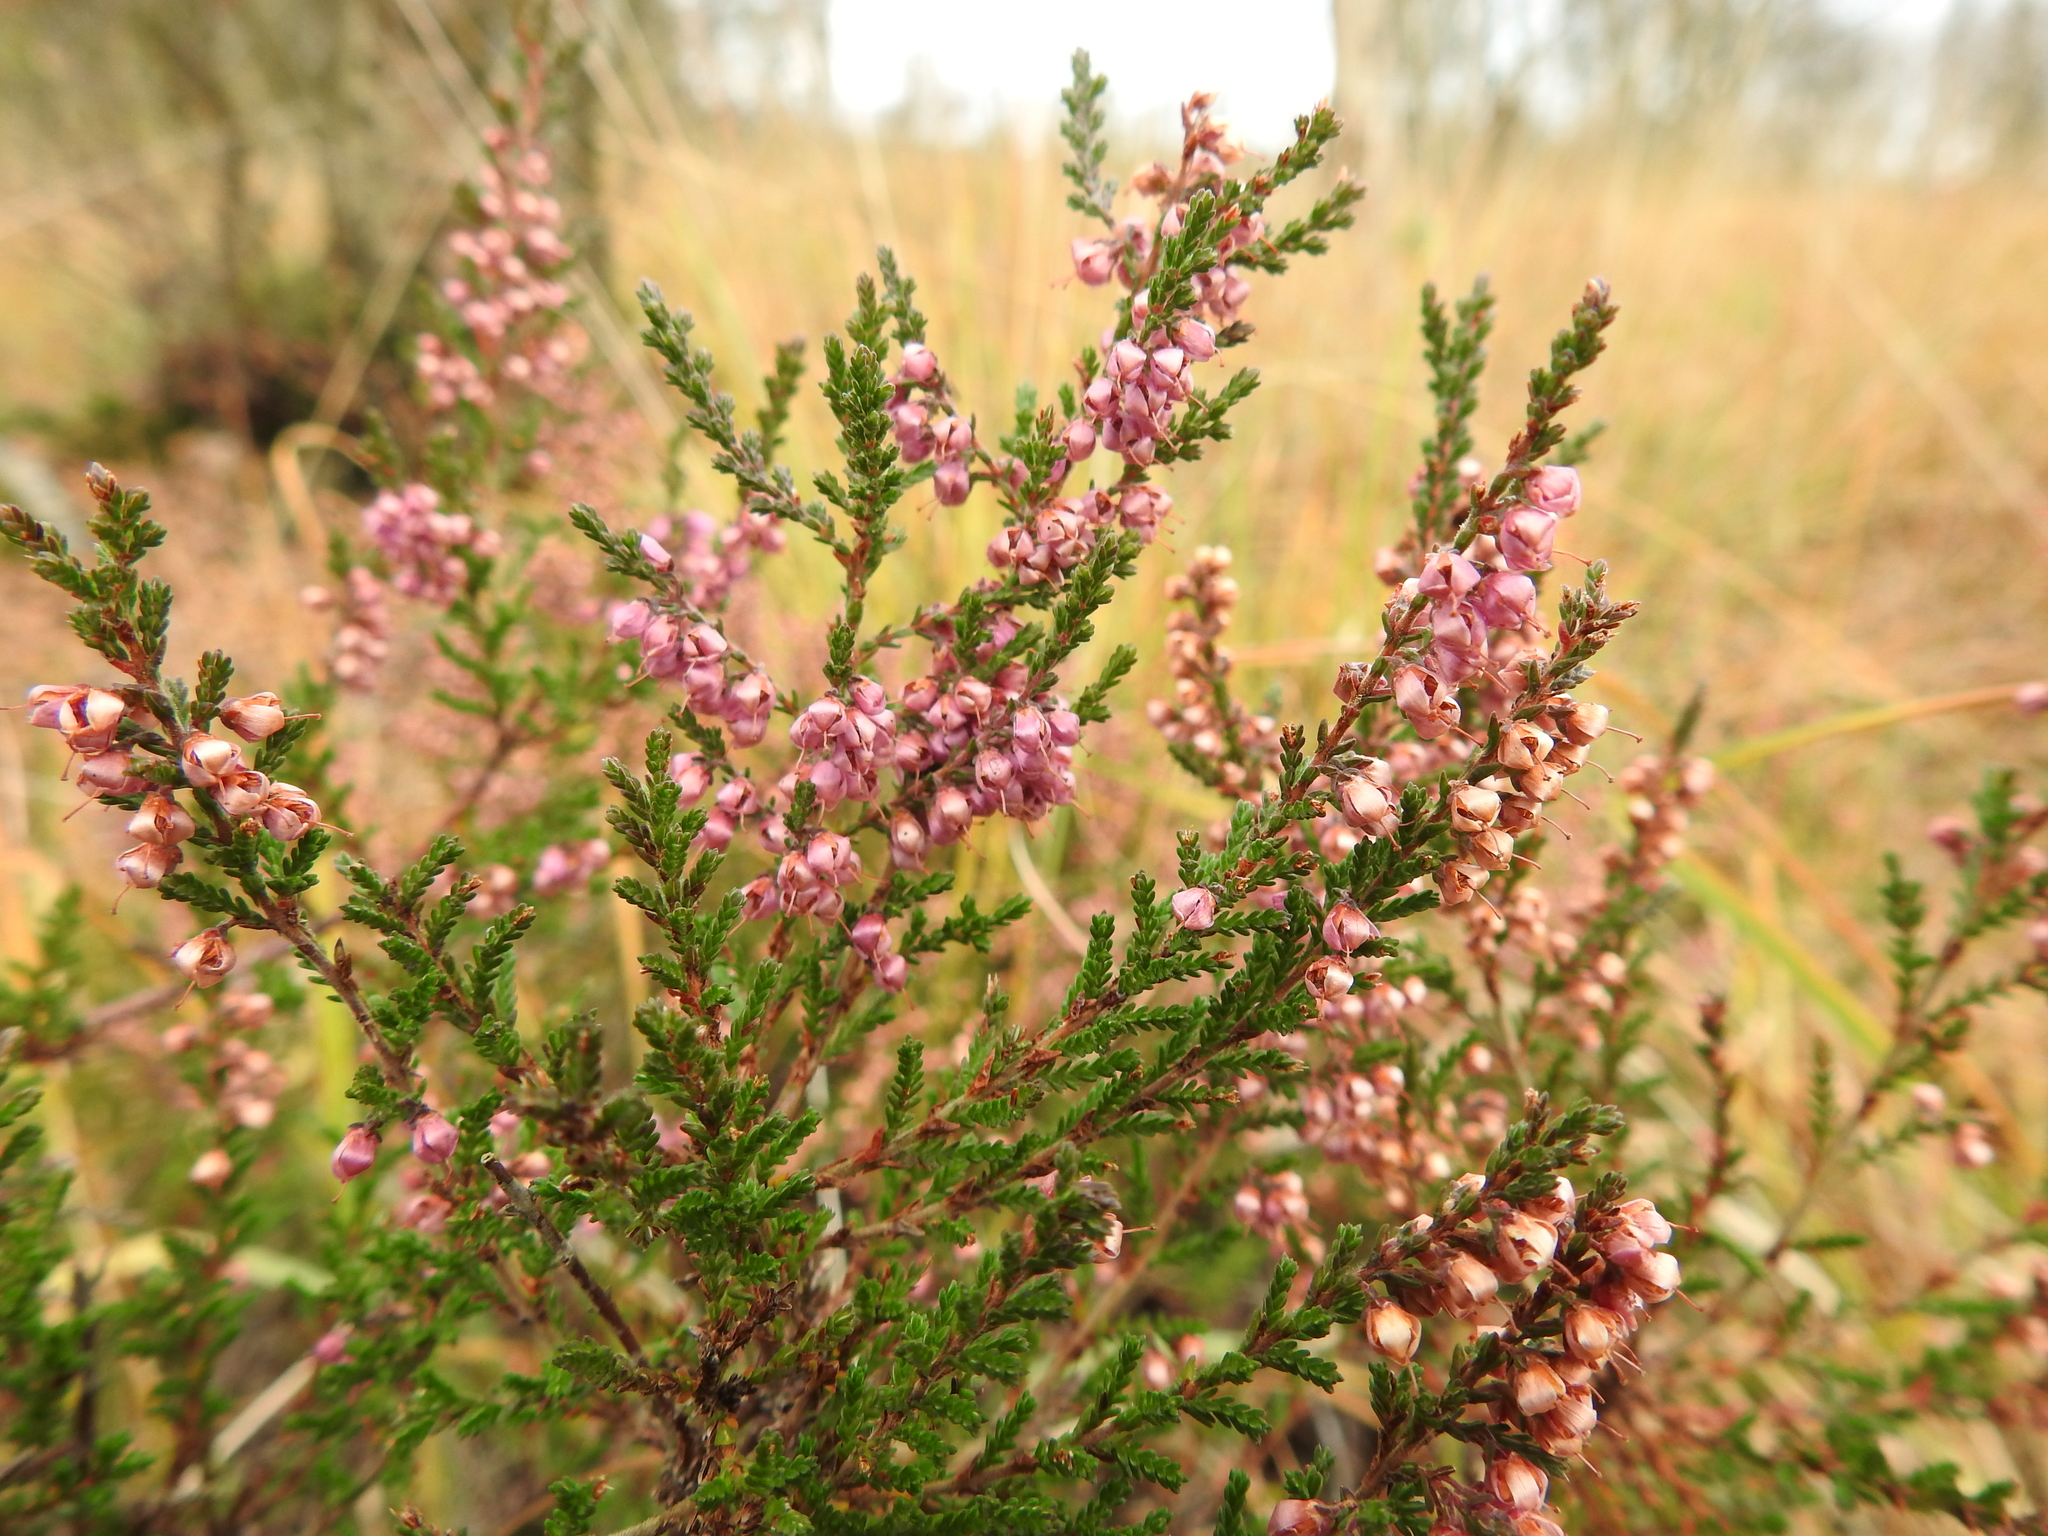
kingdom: Plantae
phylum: Tracheophyta
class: Magnoliopsida
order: Ericales
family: Ericaceae
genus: Calluna
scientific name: Calluna vulgaris
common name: Heather
